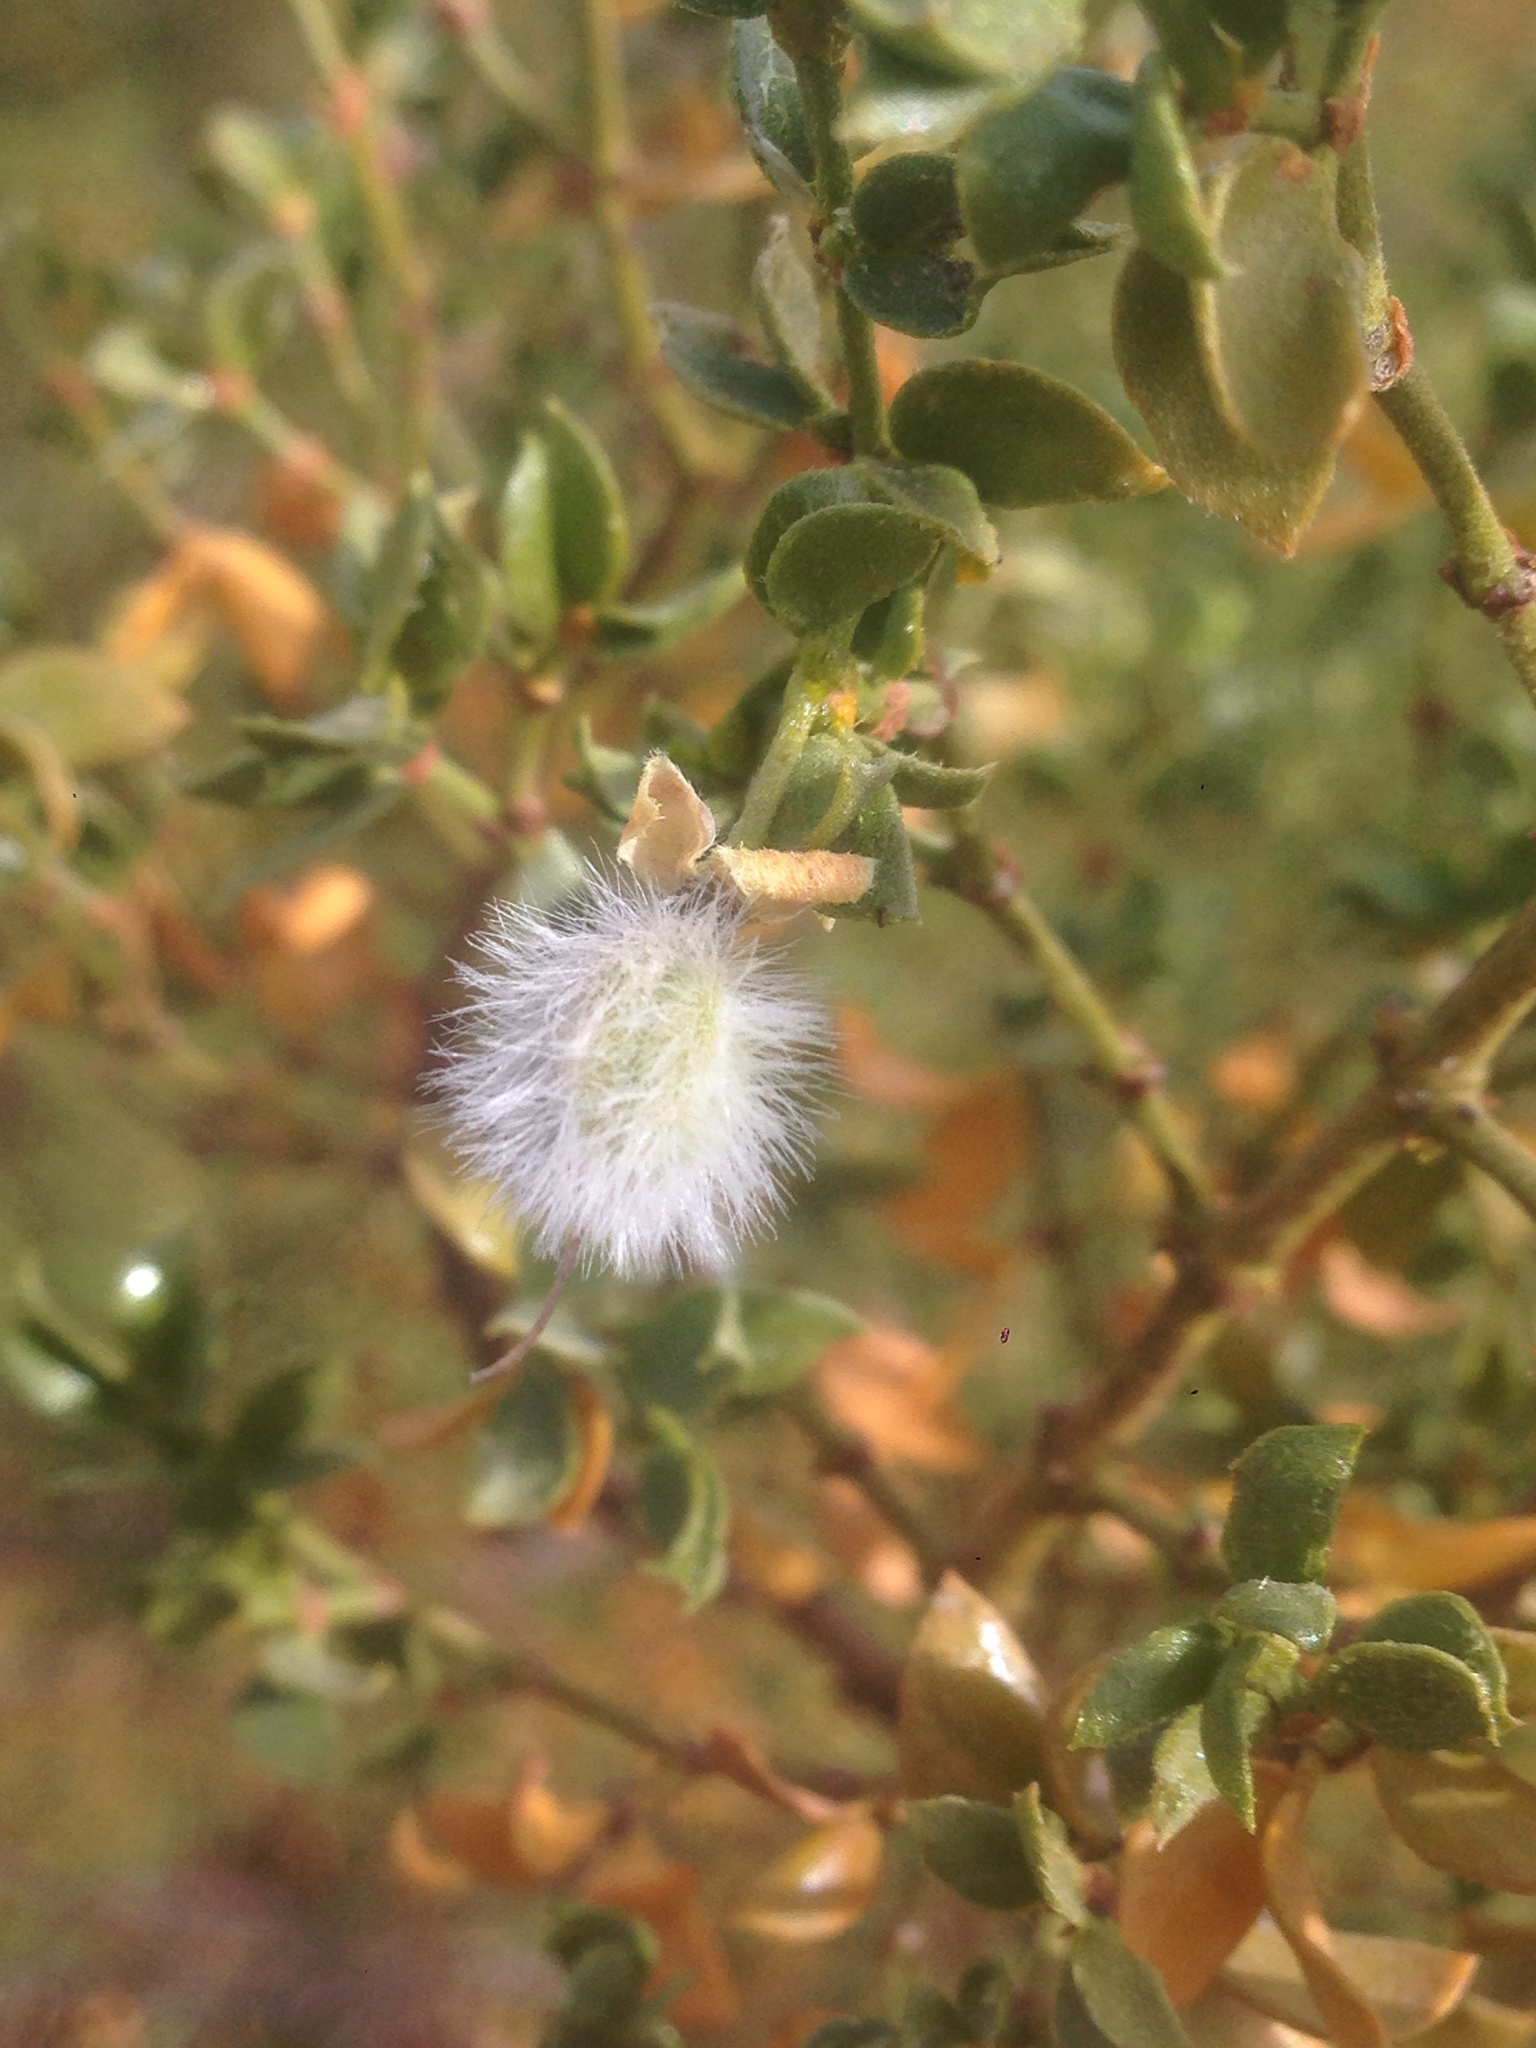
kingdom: Plantae
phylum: Tracheophyta
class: Magnoliopsida
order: Zygophyllales
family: Zygophyllaceae
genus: Larrea
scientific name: Larrea tridentata
